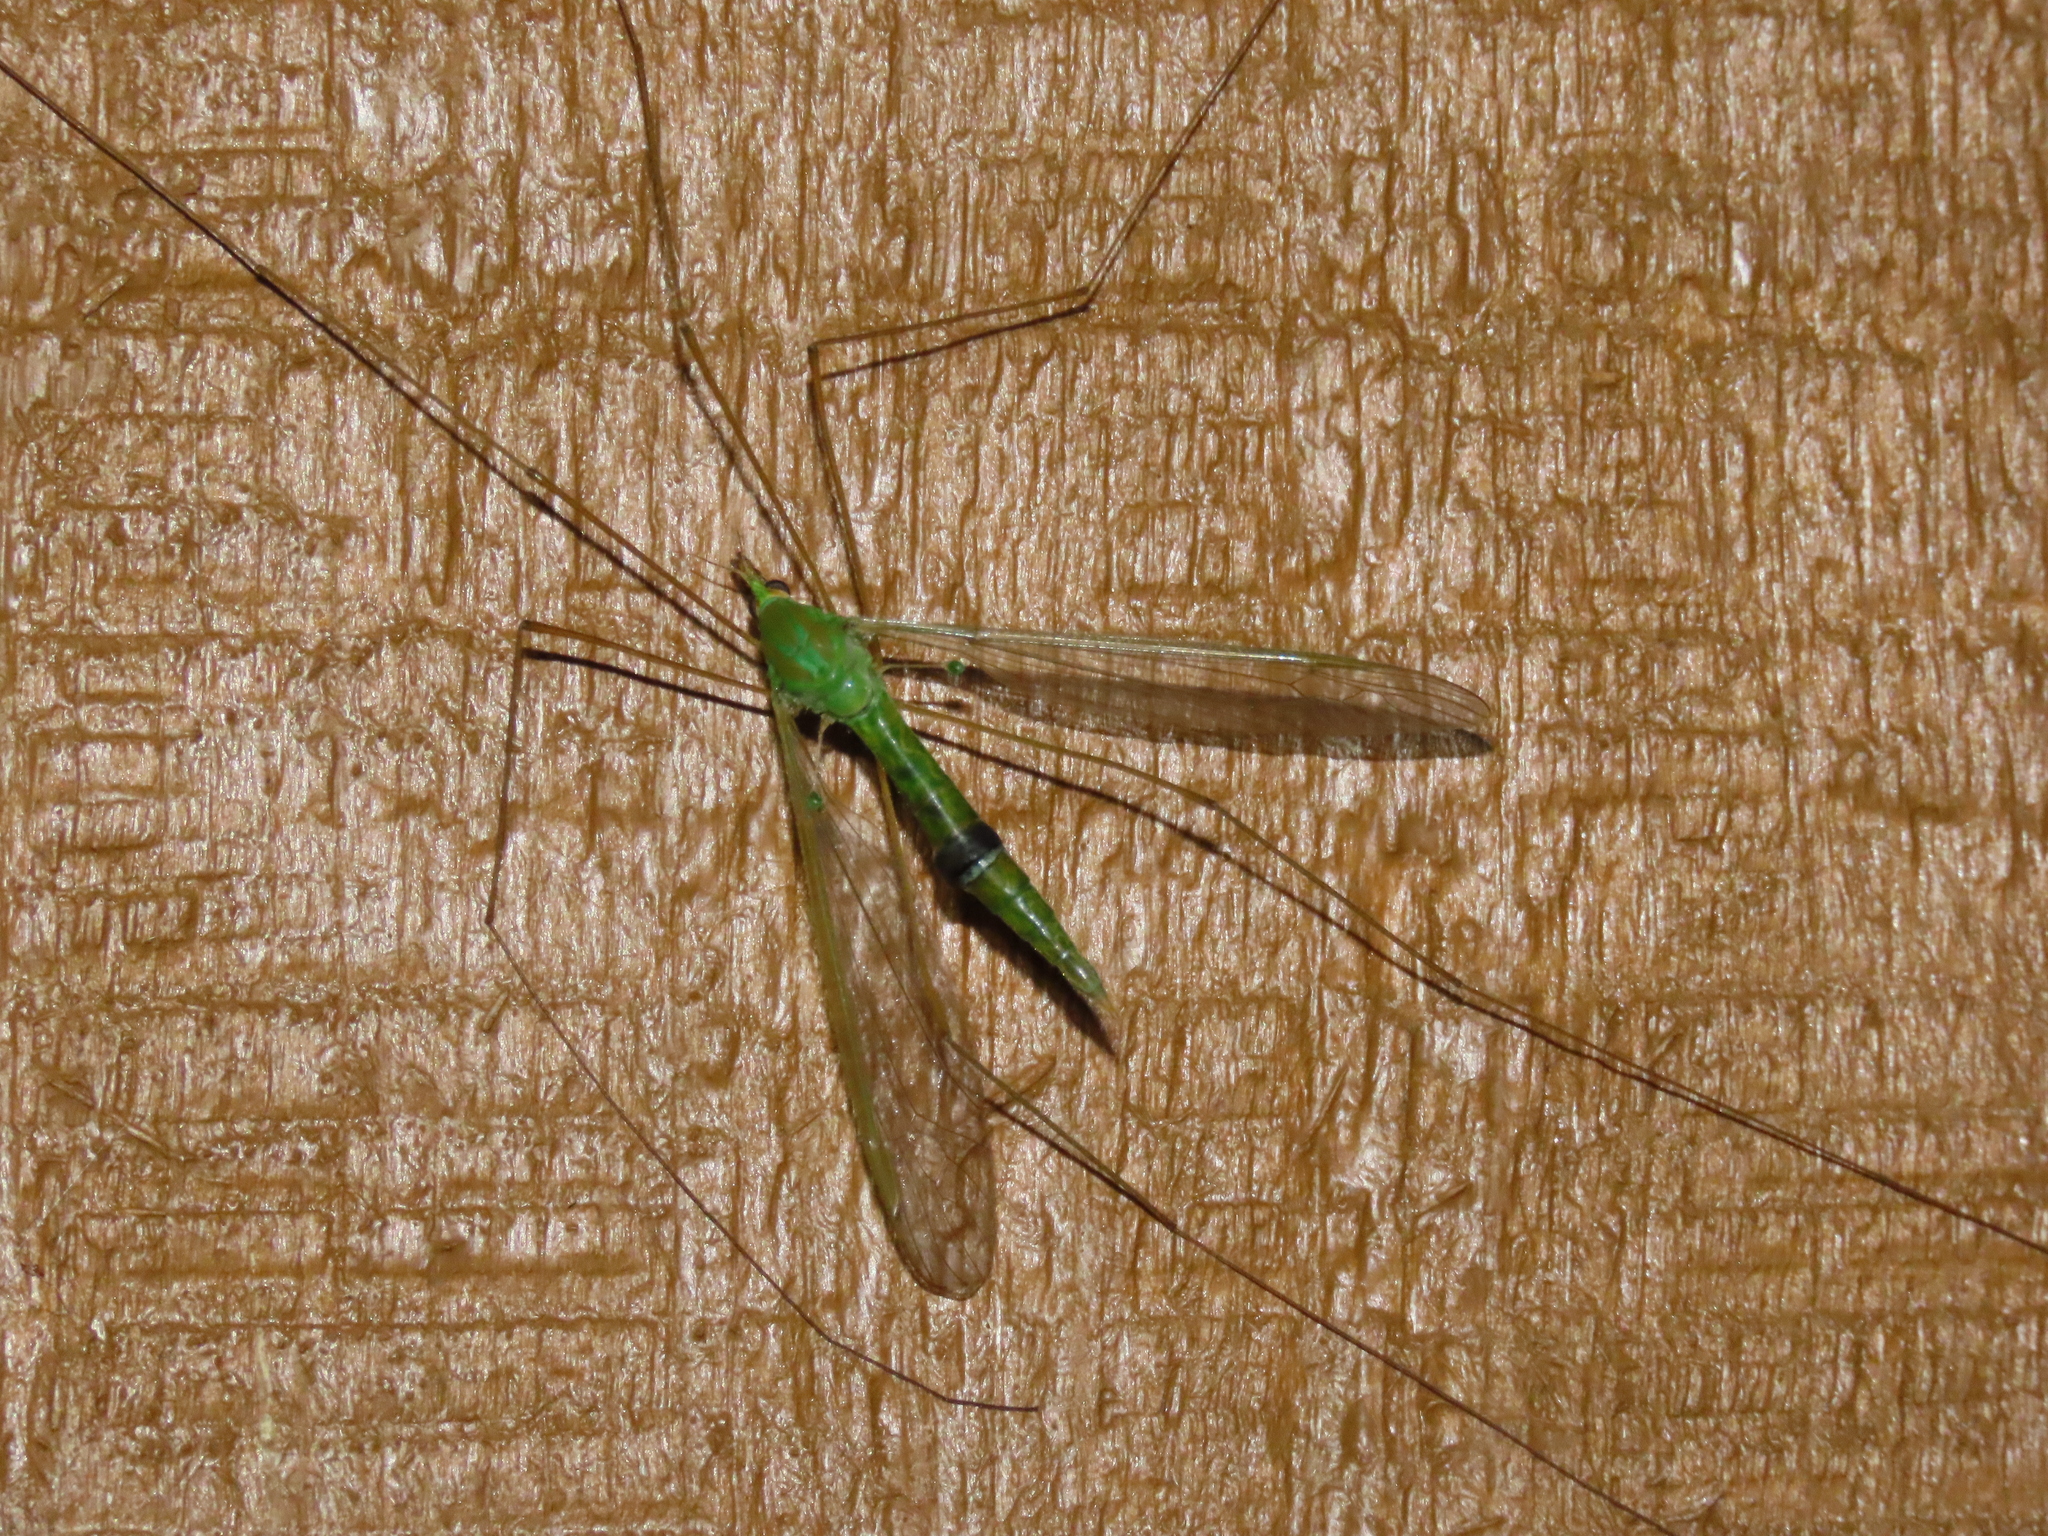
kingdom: Animalia
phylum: Arthropoda
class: Insecta
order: Diptera
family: Tipulidae
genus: Leptotarsus
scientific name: Leptotarsus virescens
